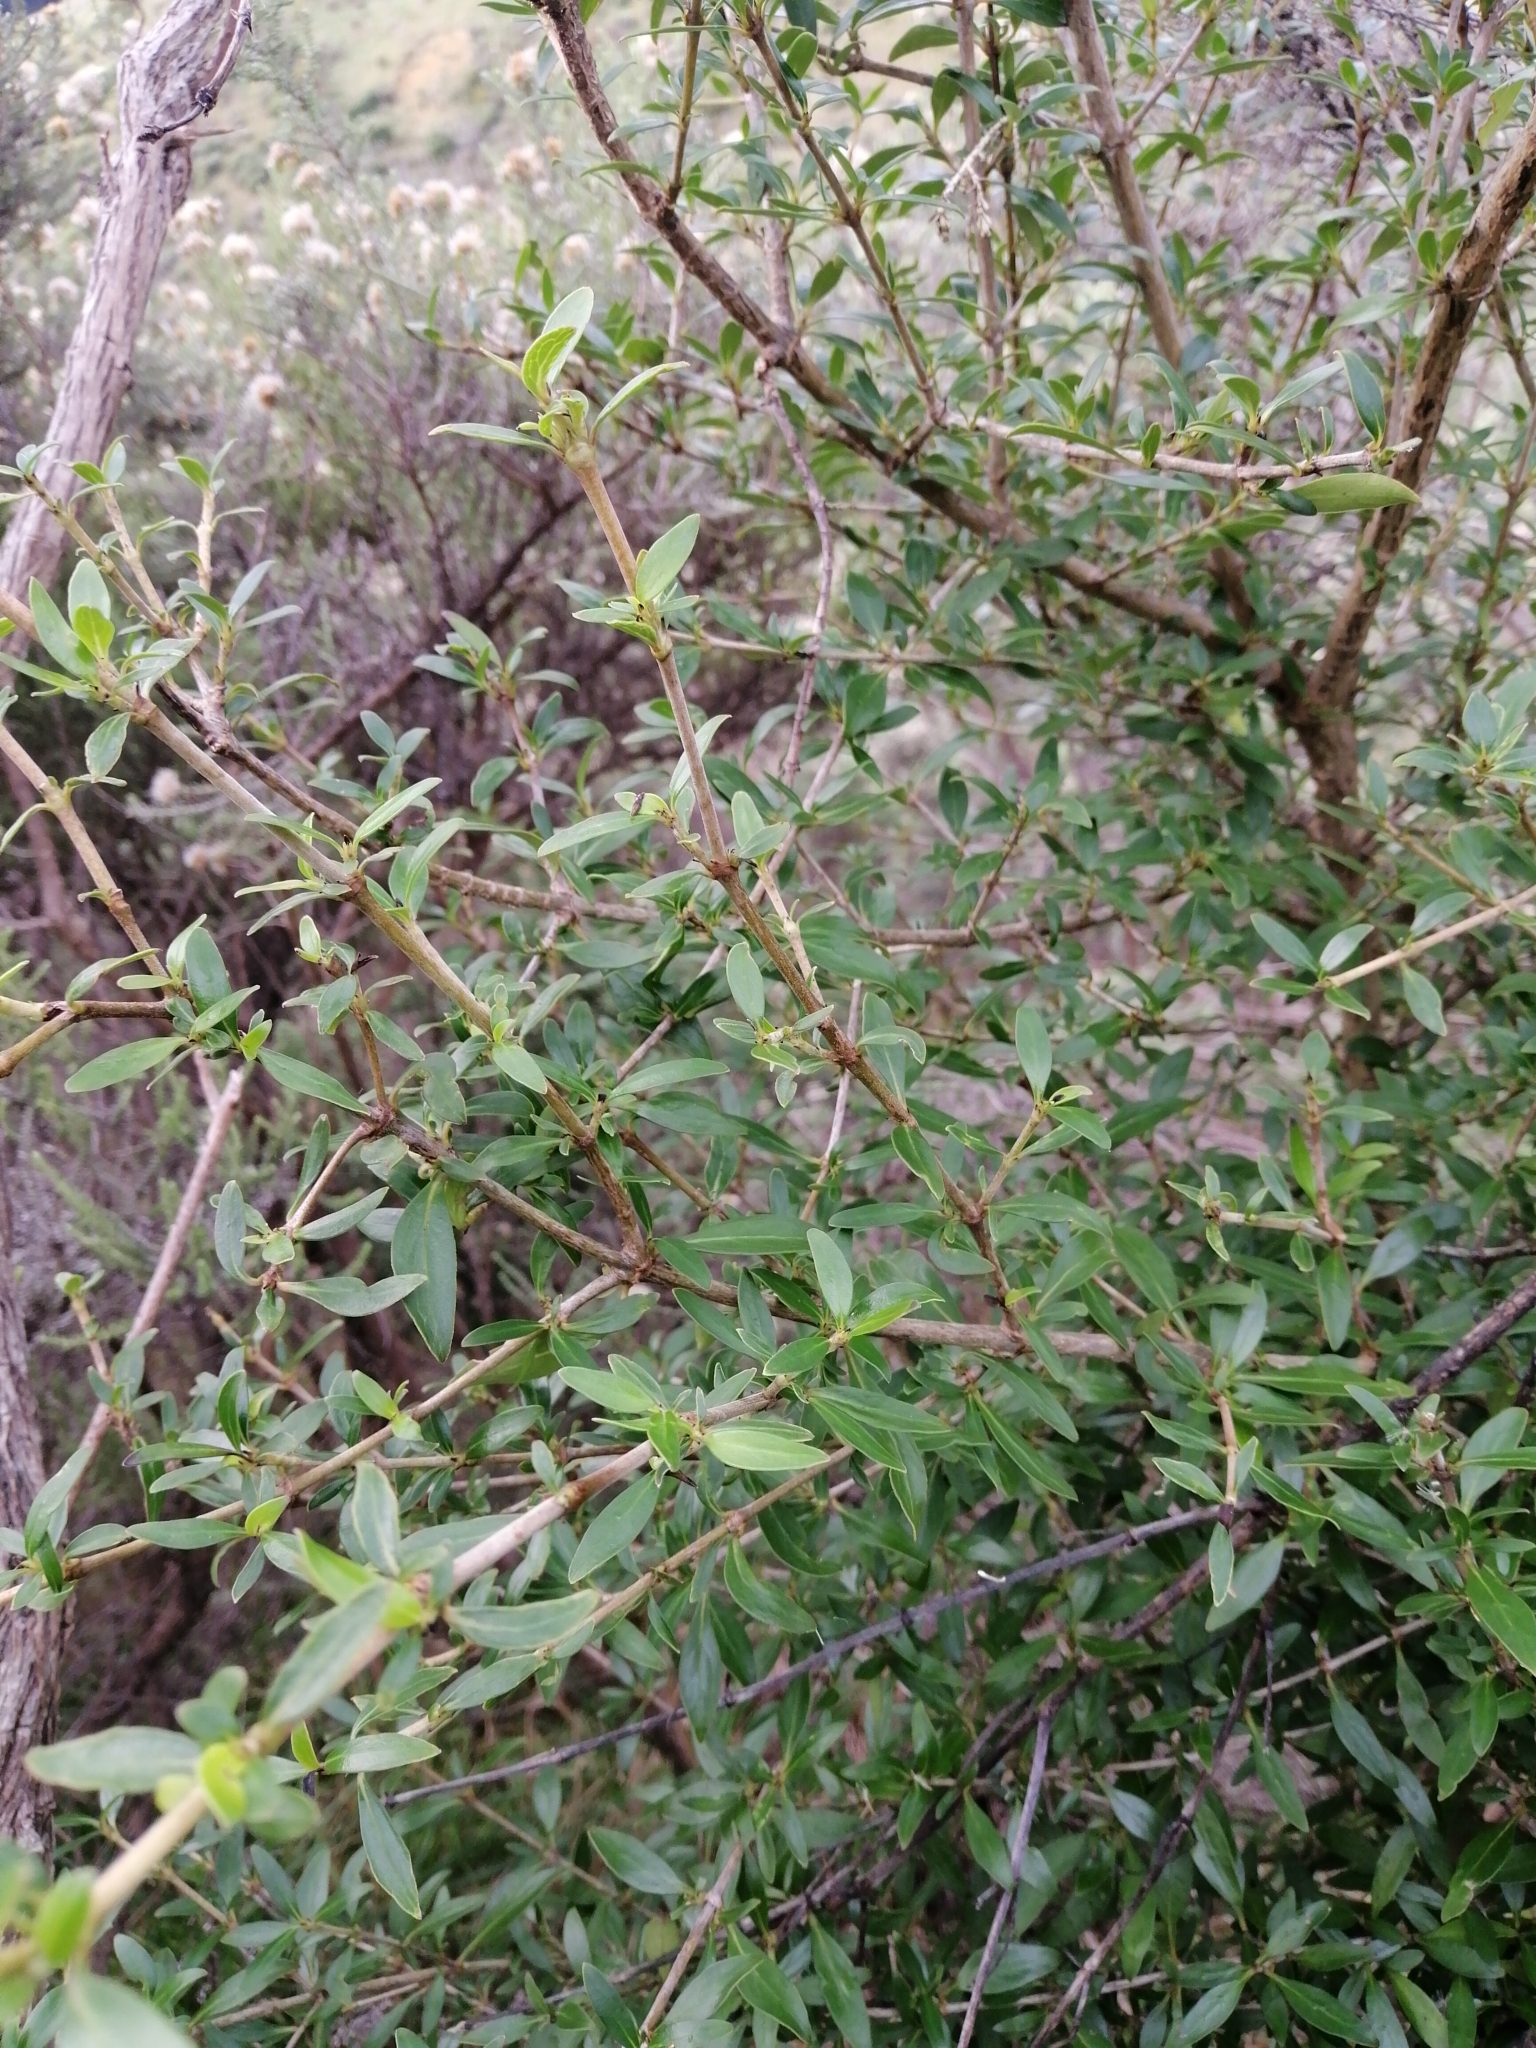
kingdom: Plantae
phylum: Tracheophyta
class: Magnoliopsida
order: Gentianales
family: Rubiaceae
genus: Coprosma
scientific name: Coprosma cunninghamii
